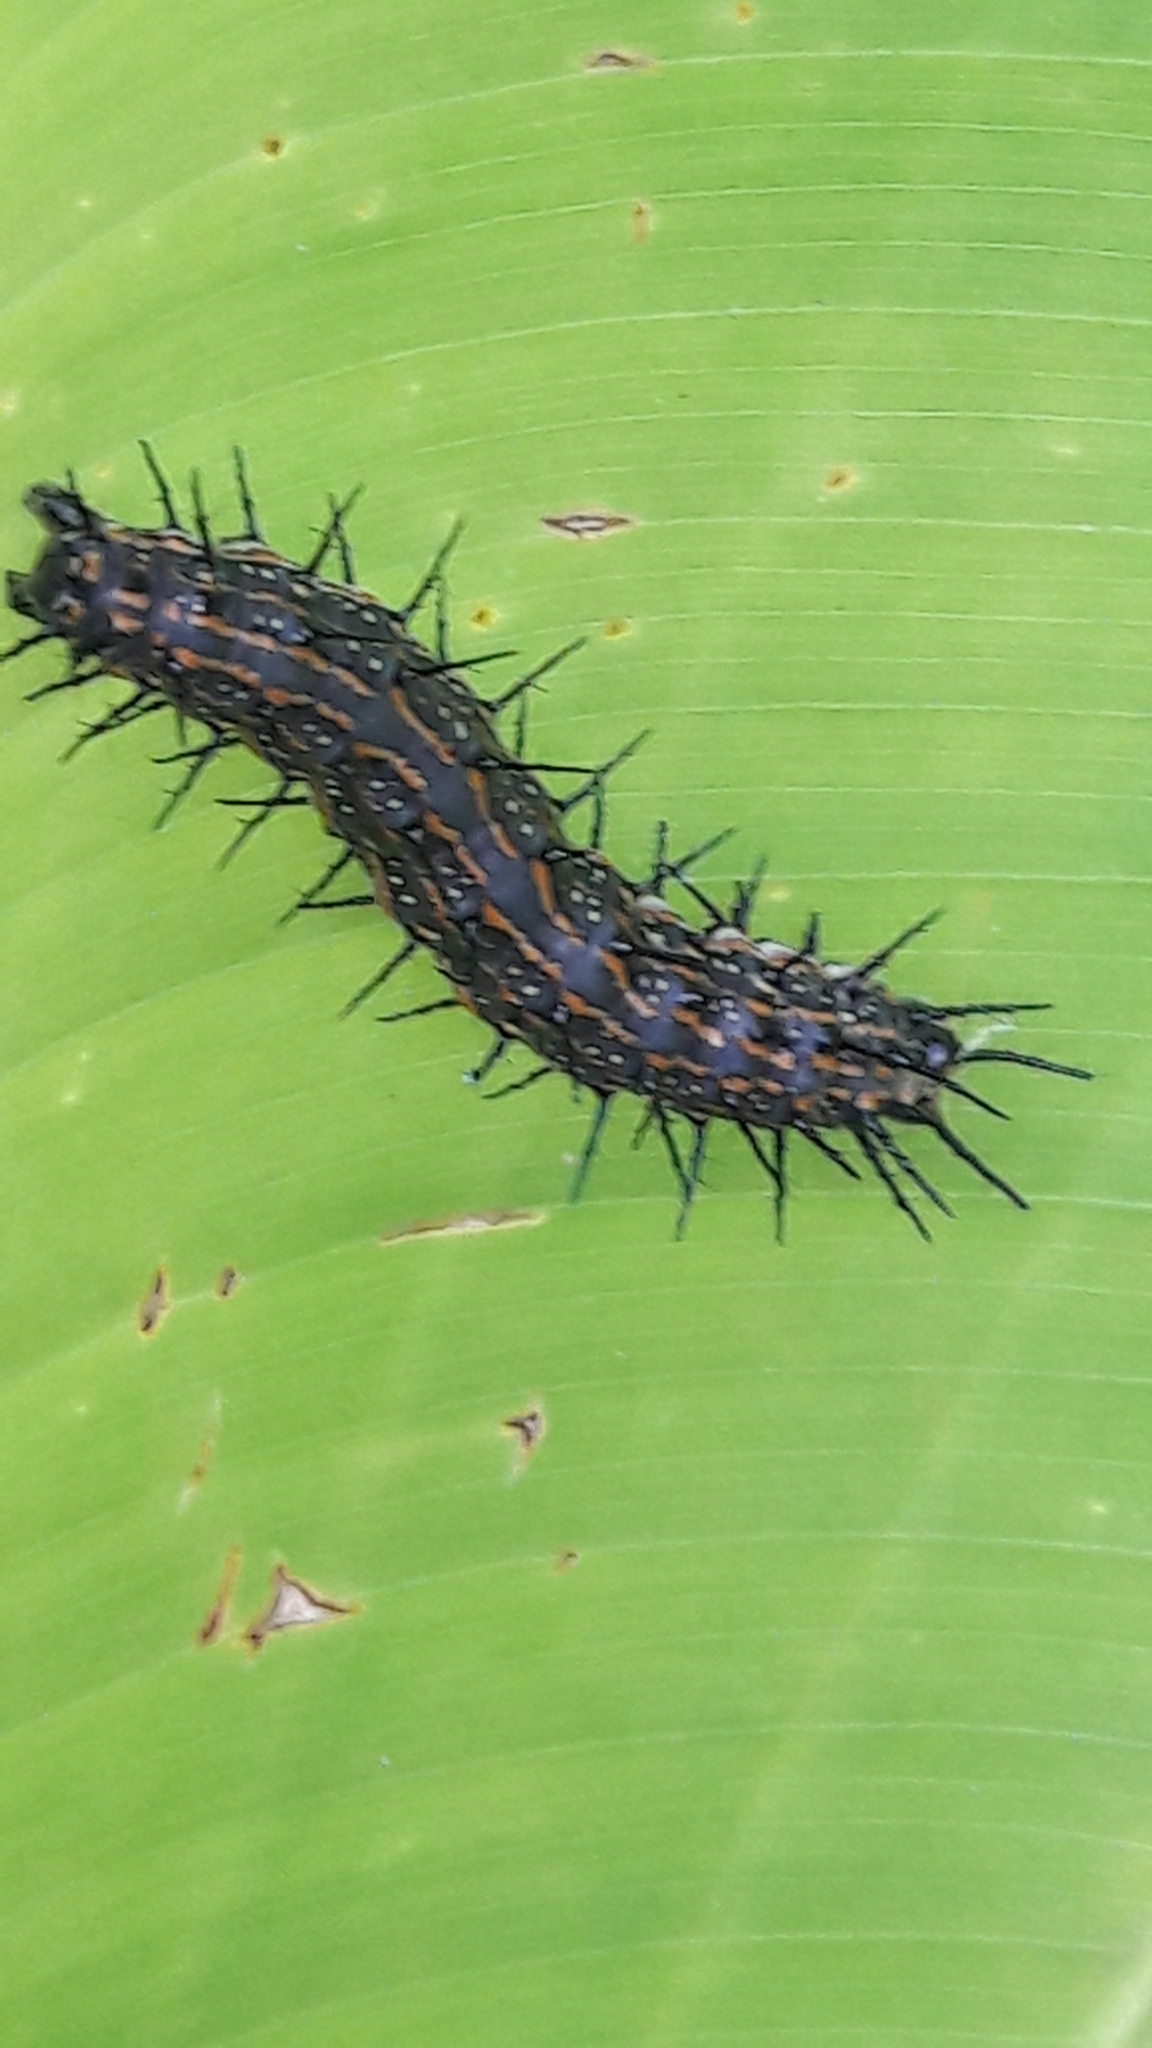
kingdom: Animalia
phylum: Arthropoda
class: Insecta
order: Lepidoptera
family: Nymphalidae
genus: Dione
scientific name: Dione vanillae
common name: Gulf fritillary
